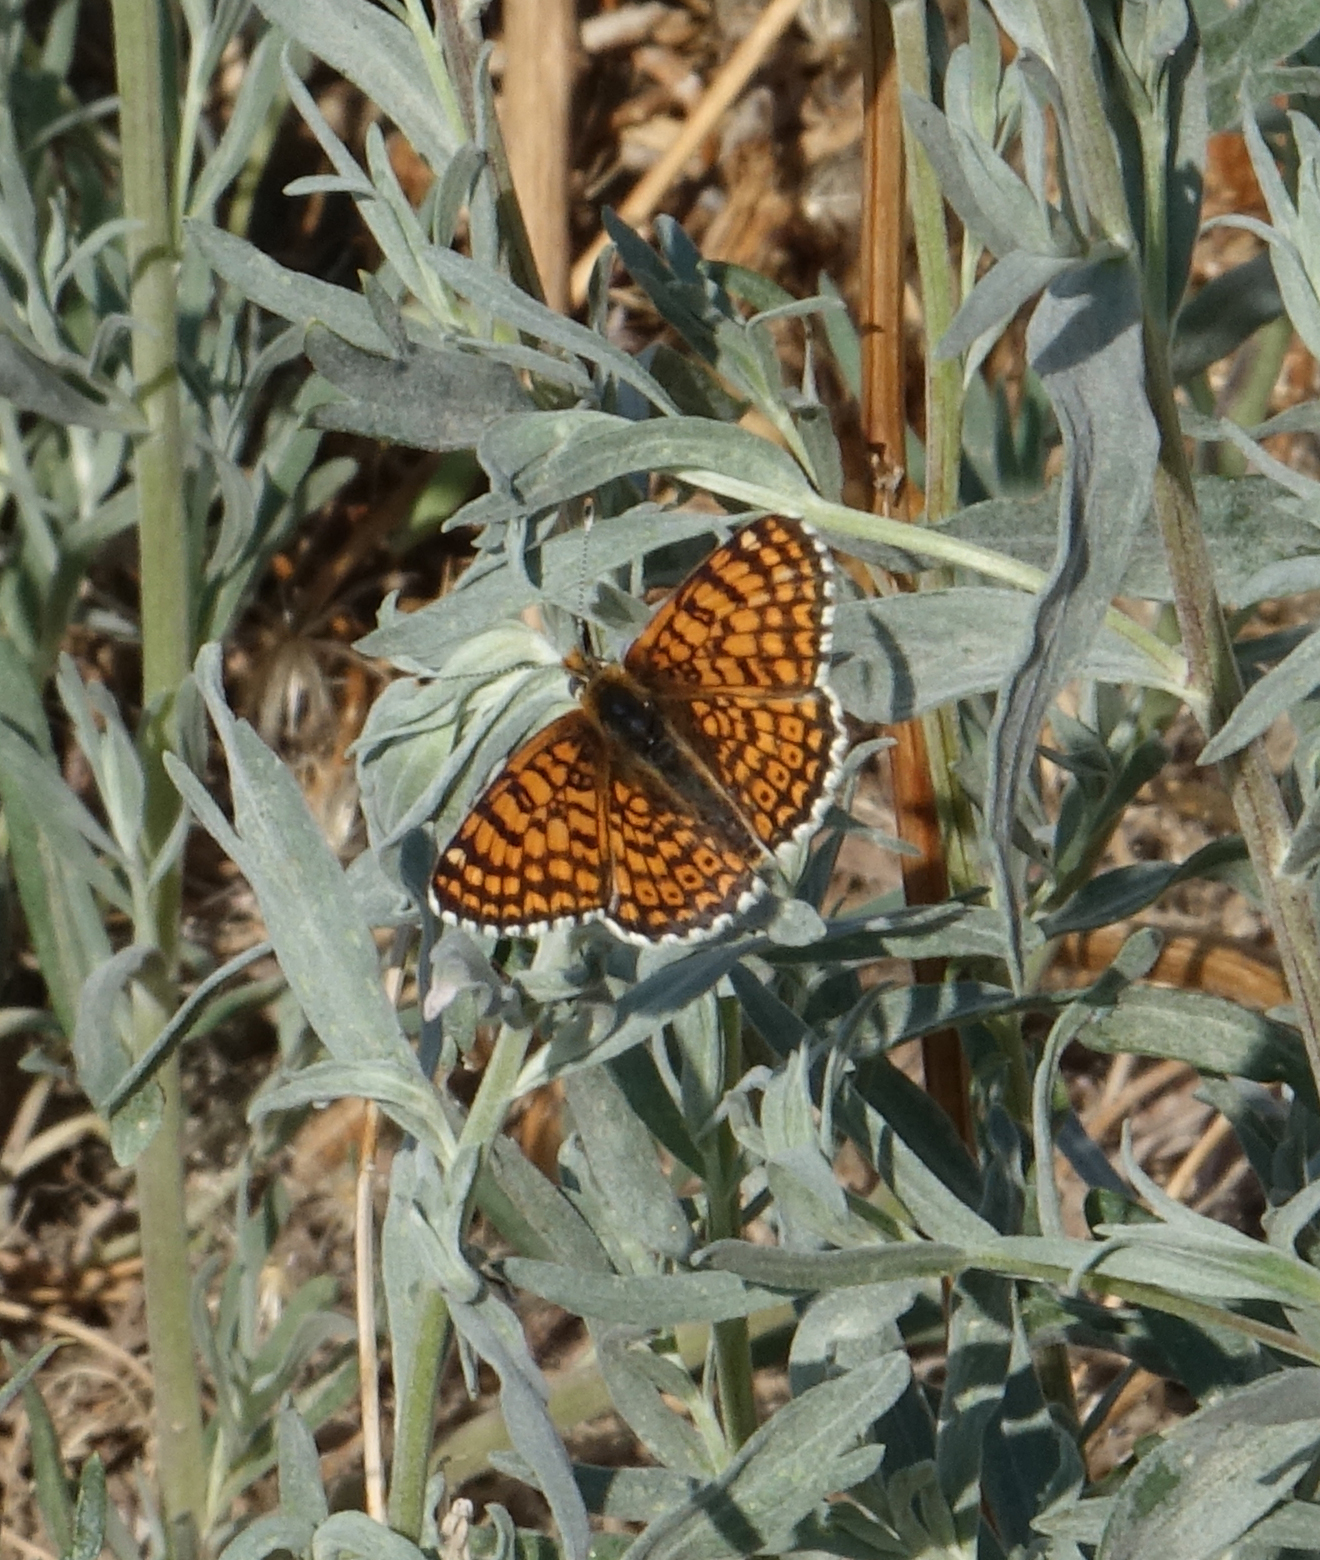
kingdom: Animalia
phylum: Arthropoda
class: Insecta
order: Lepidoptera
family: Nymphalidae
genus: Melitaea
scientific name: Melitaea cinxia
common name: Glanville fritillary
